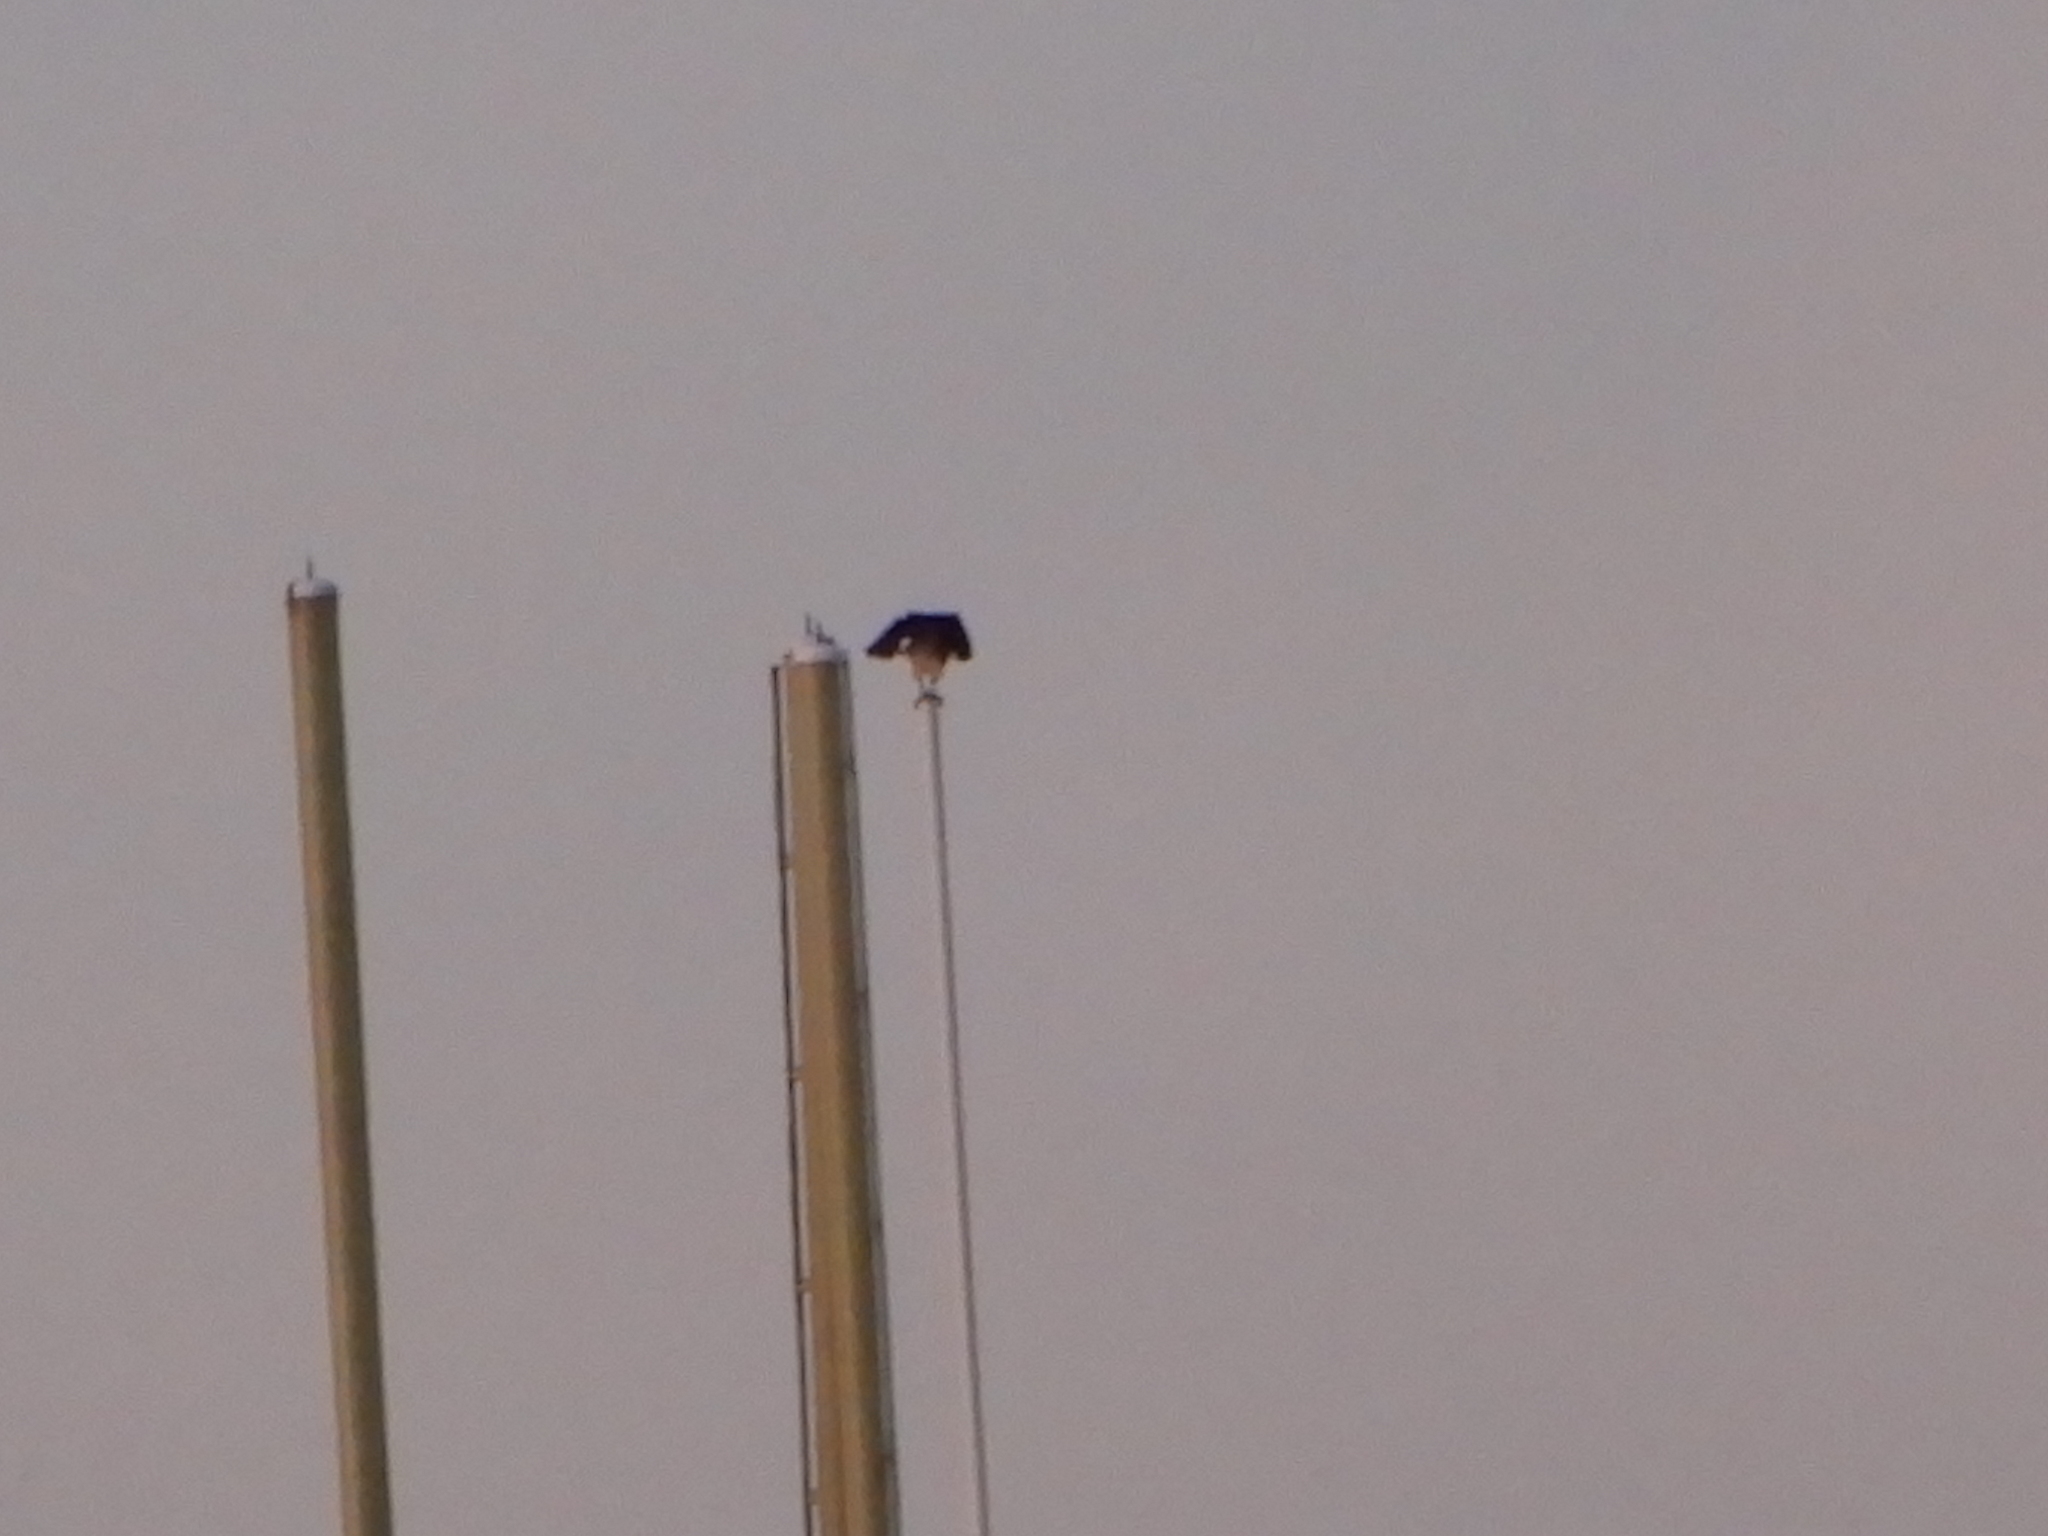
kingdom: Animalia
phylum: Chordata
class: Aves
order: Accipitriformes
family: Pandionidae
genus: Pandion
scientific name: Pandion haliaetus
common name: Osprey
